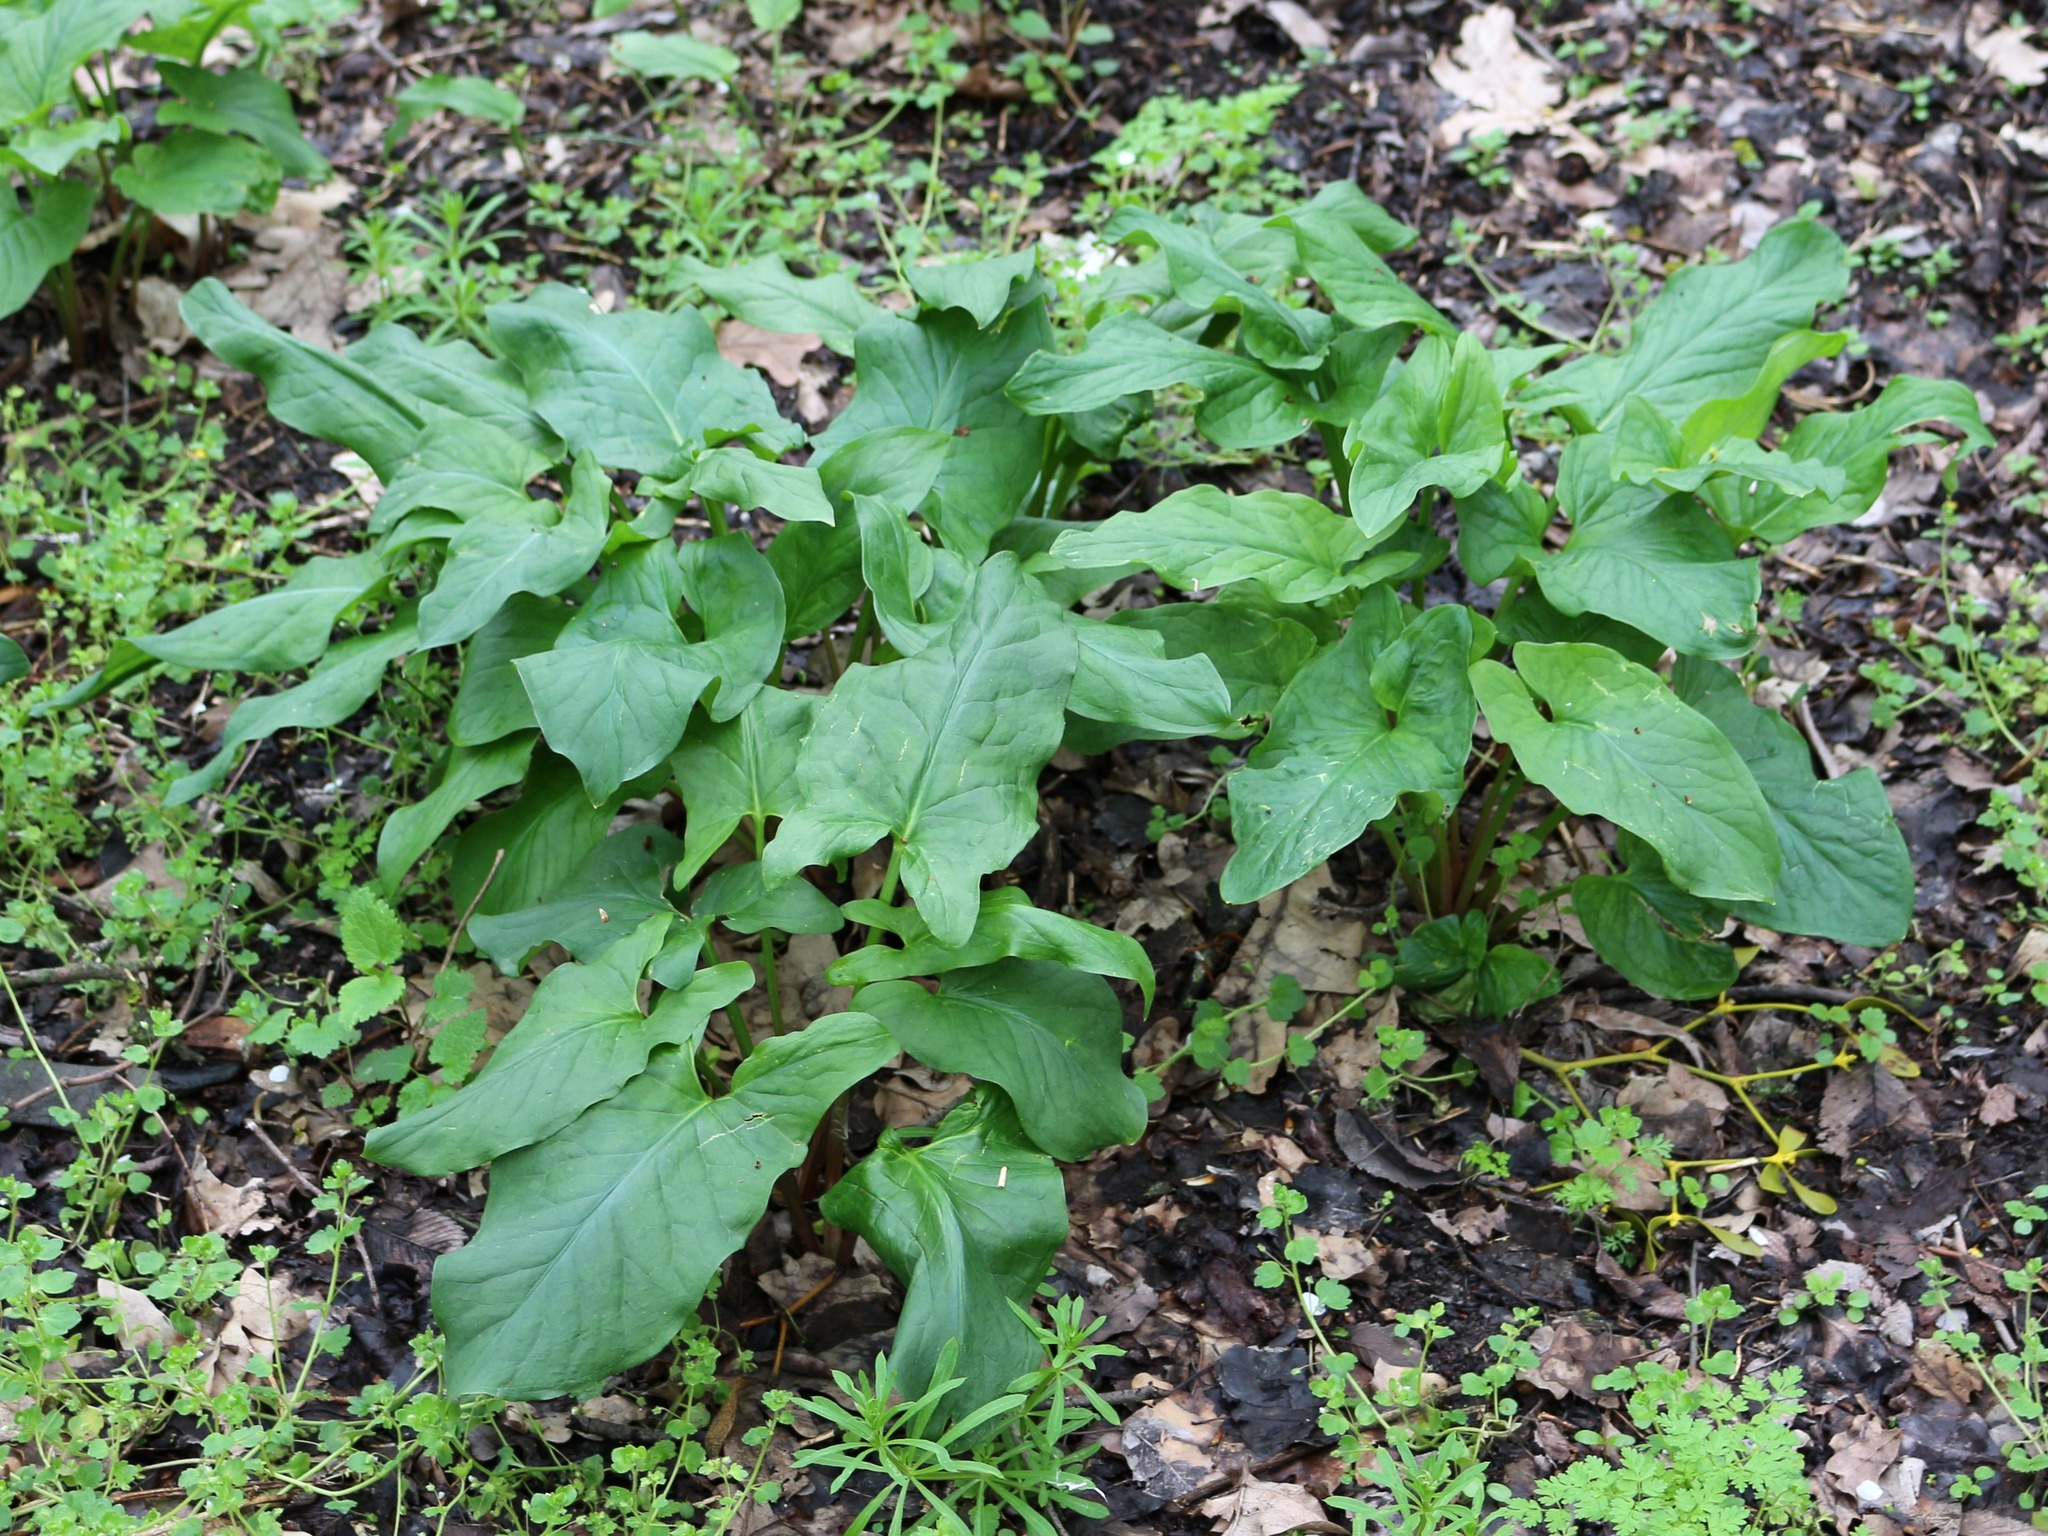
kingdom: Plantae
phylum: Tracheophyta
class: Liliopsida
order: Alismatales
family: Araceae
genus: Arum
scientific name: Arum maculatum
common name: Lords-and-ladies
